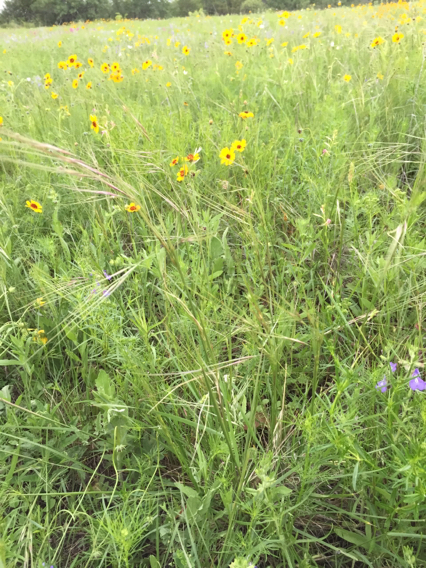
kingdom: Plantae
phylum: Tracheophyta
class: Liliopsida
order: Poales
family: Poaceae
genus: Nassella
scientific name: Nassella leucotricha
